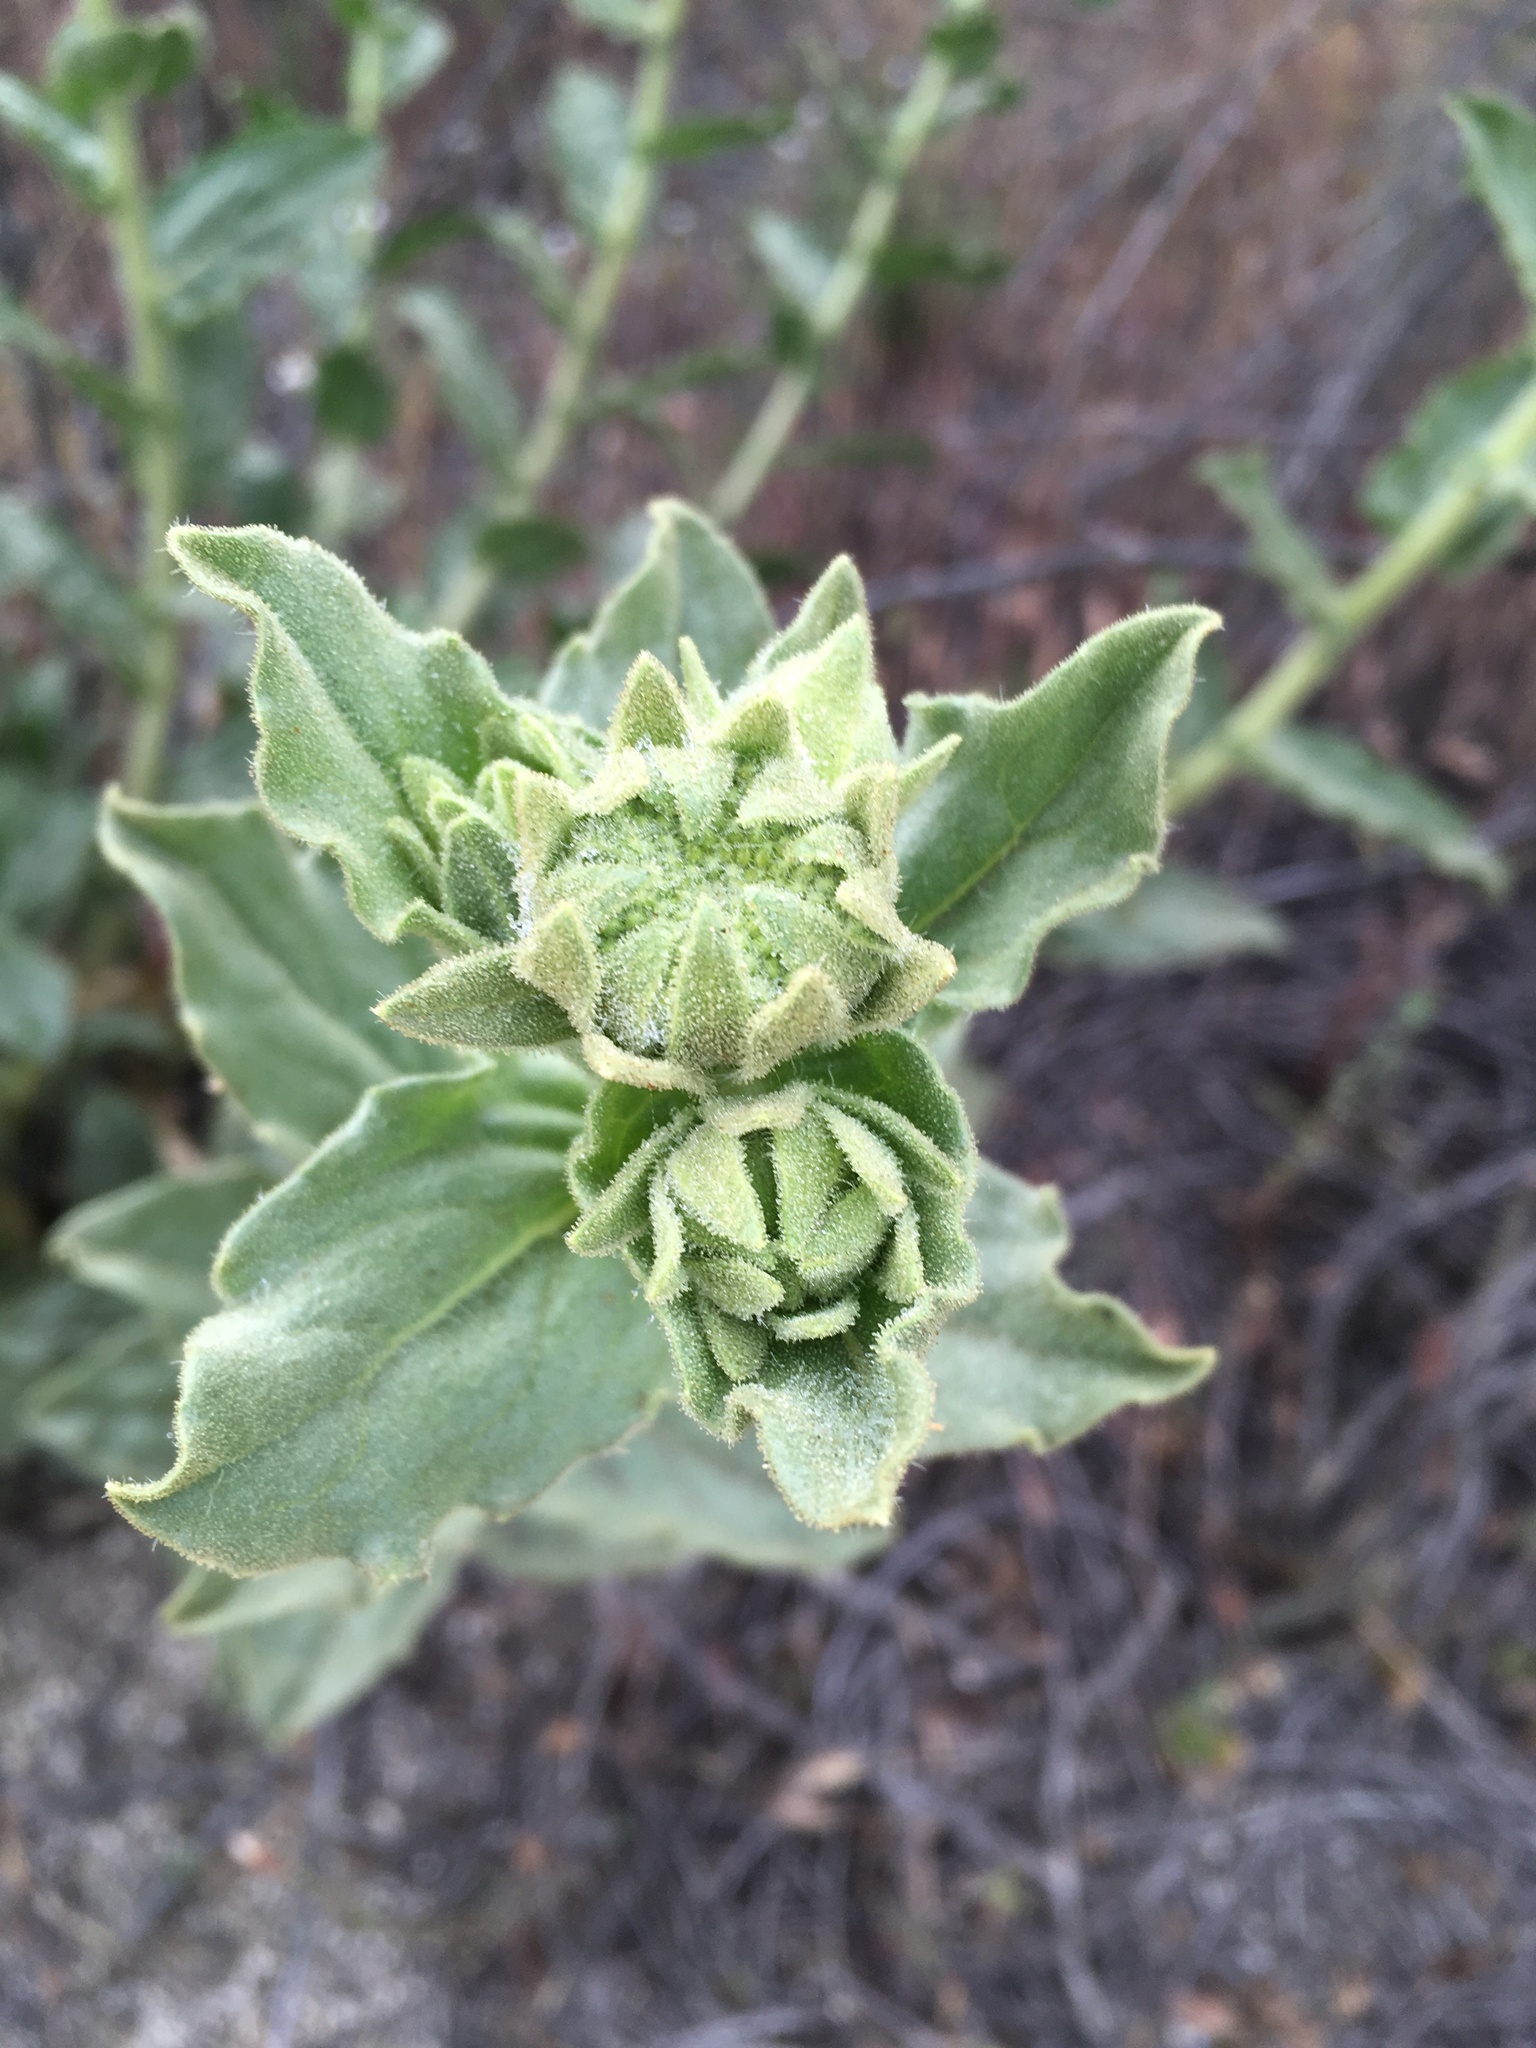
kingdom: Plantae
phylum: Tracheophyta
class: Magnoliopsida
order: Asterales
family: Asteraceae
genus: Geraea
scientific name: Geraea viscida
